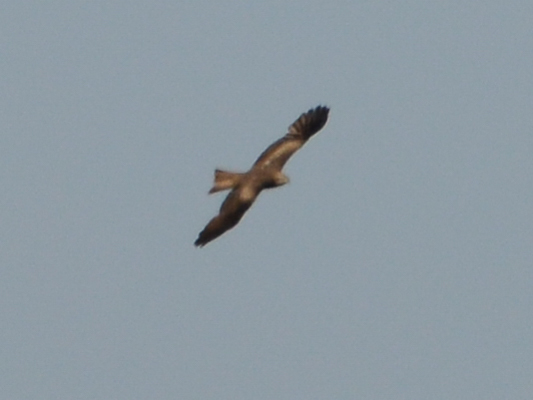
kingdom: Animalia
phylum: Chordata
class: Aves
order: Accipitriformes
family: Accipitridae
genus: Milvus
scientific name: Milvus migrans
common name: Black kite
